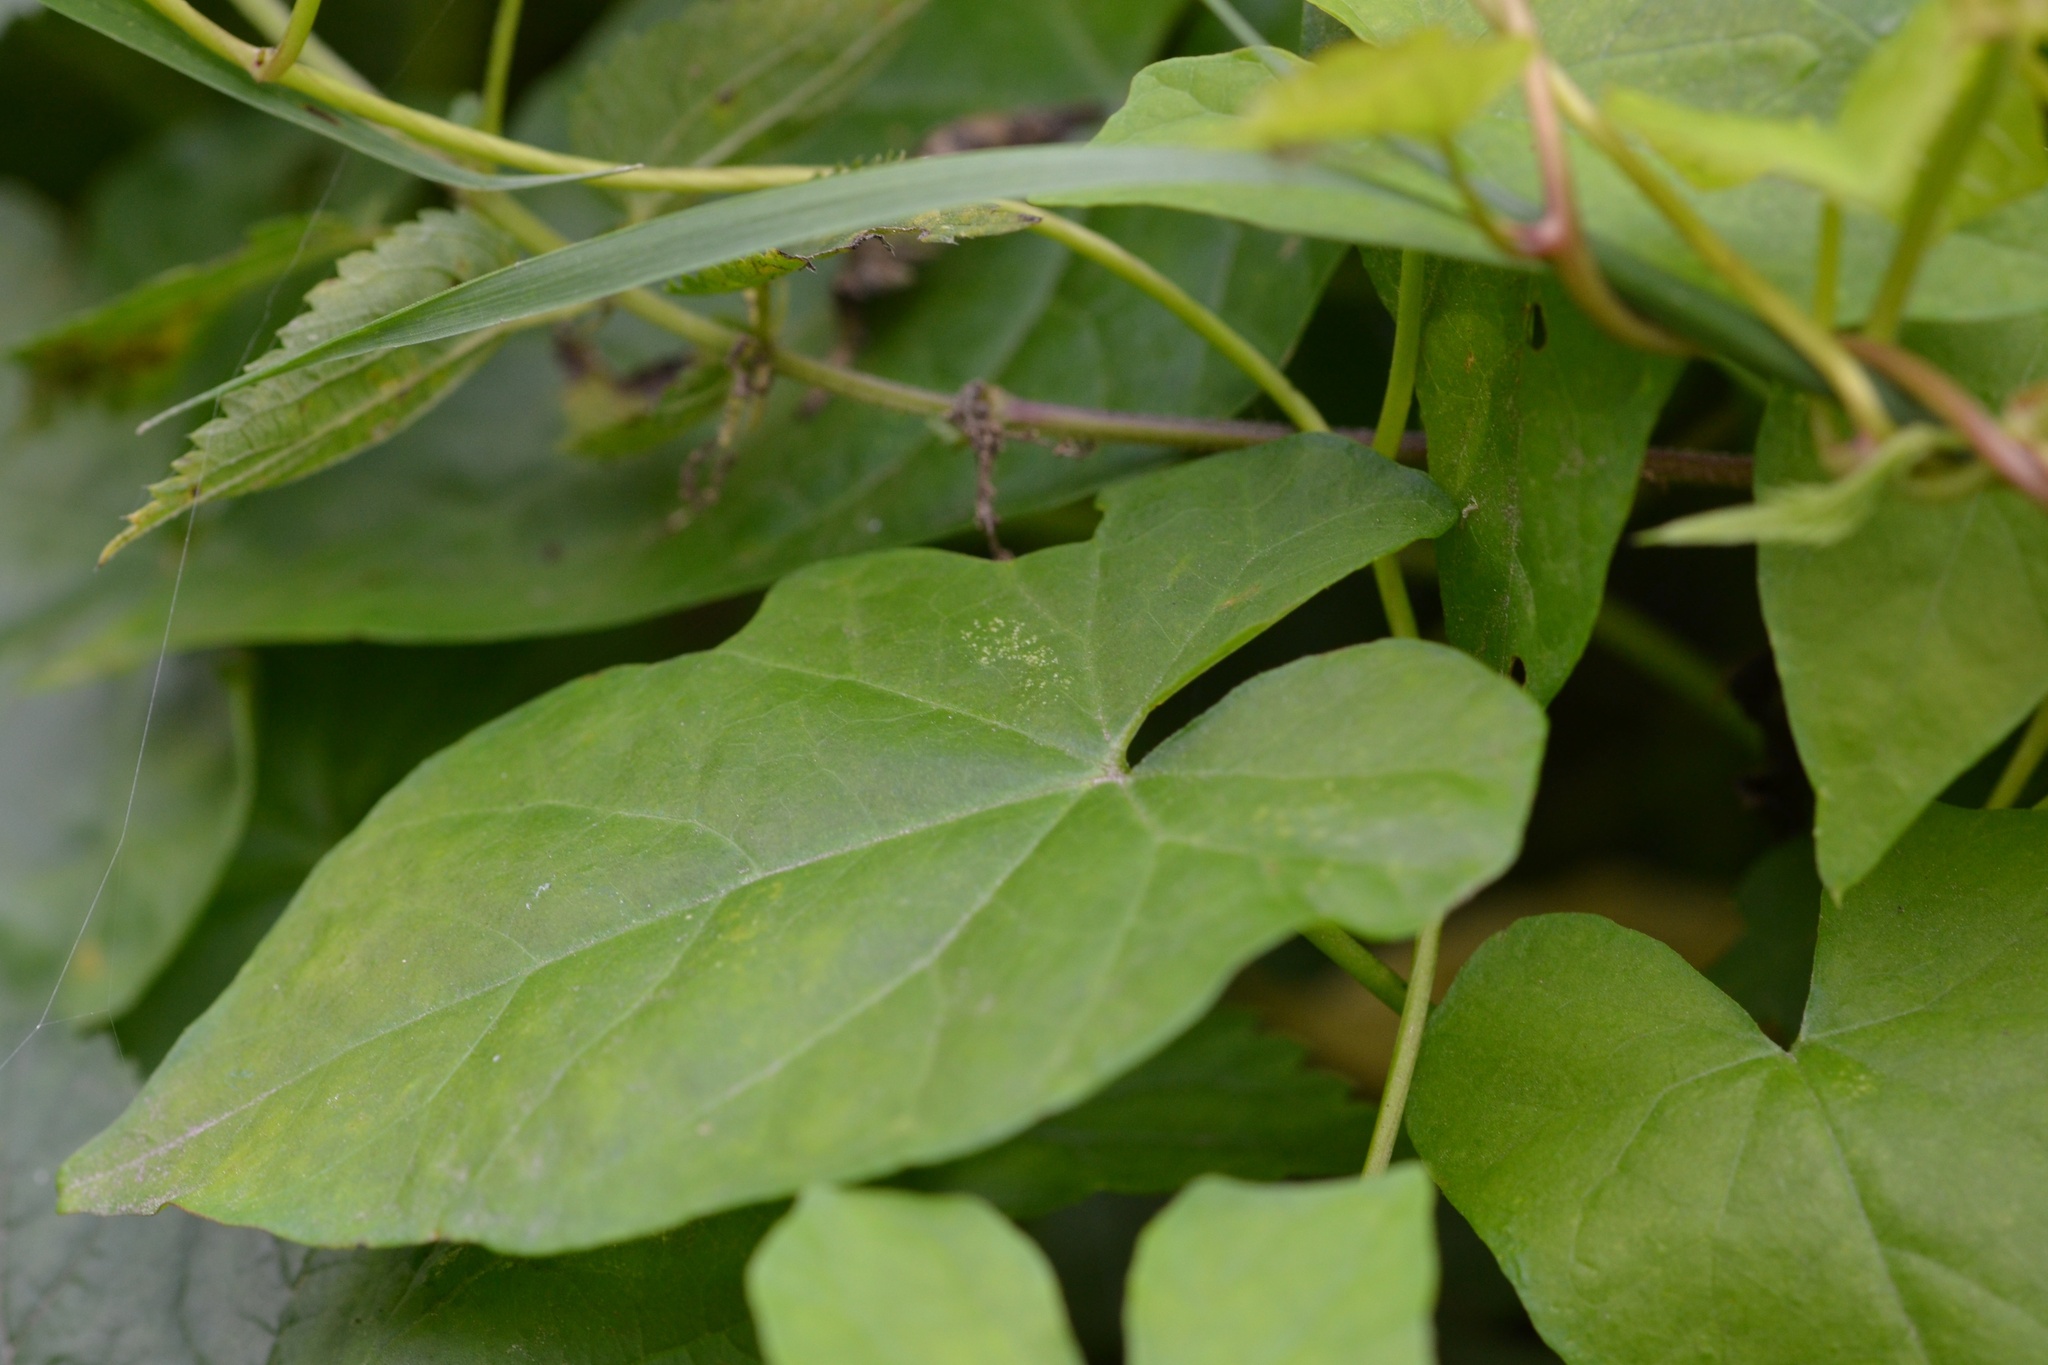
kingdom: Plantae
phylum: Tracheophyta
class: Magnoliopsida
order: Solanales
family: Convolvulaceae
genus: Calystegia
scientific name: Calystegia sepium
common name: Hedge bindweed
